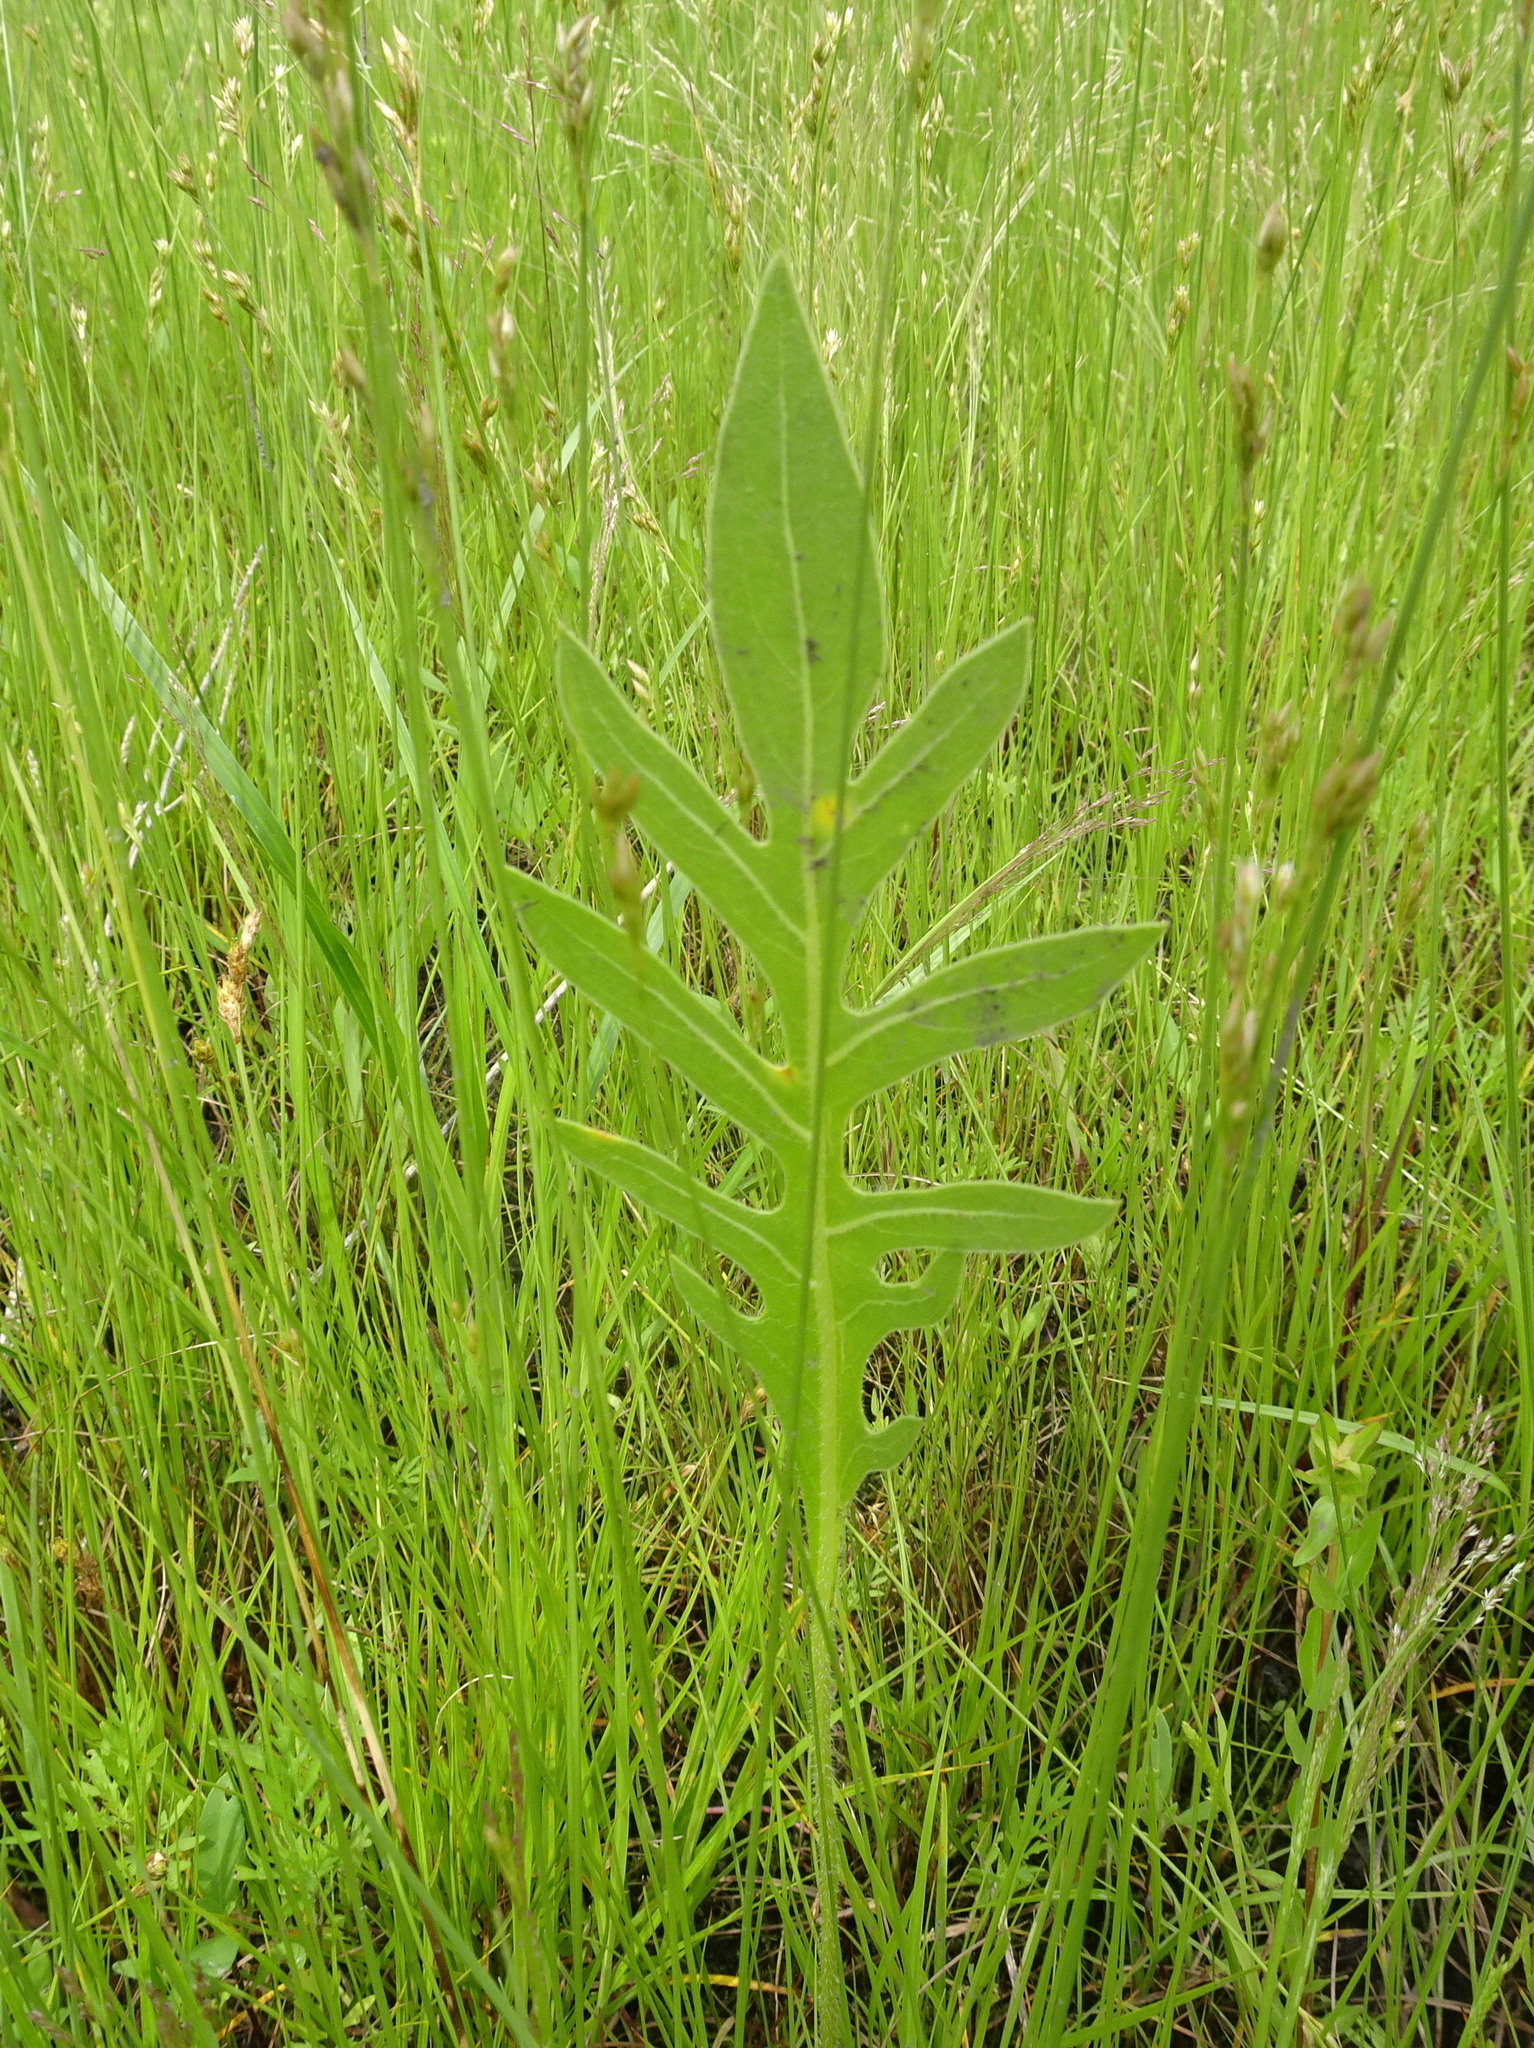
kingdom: Plantae
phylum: Tracheophyta
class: Magnoliopsida
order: Asterales
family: Asteraceae
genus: Silphium
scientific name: Silphium laciniatum
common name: Polarplant
